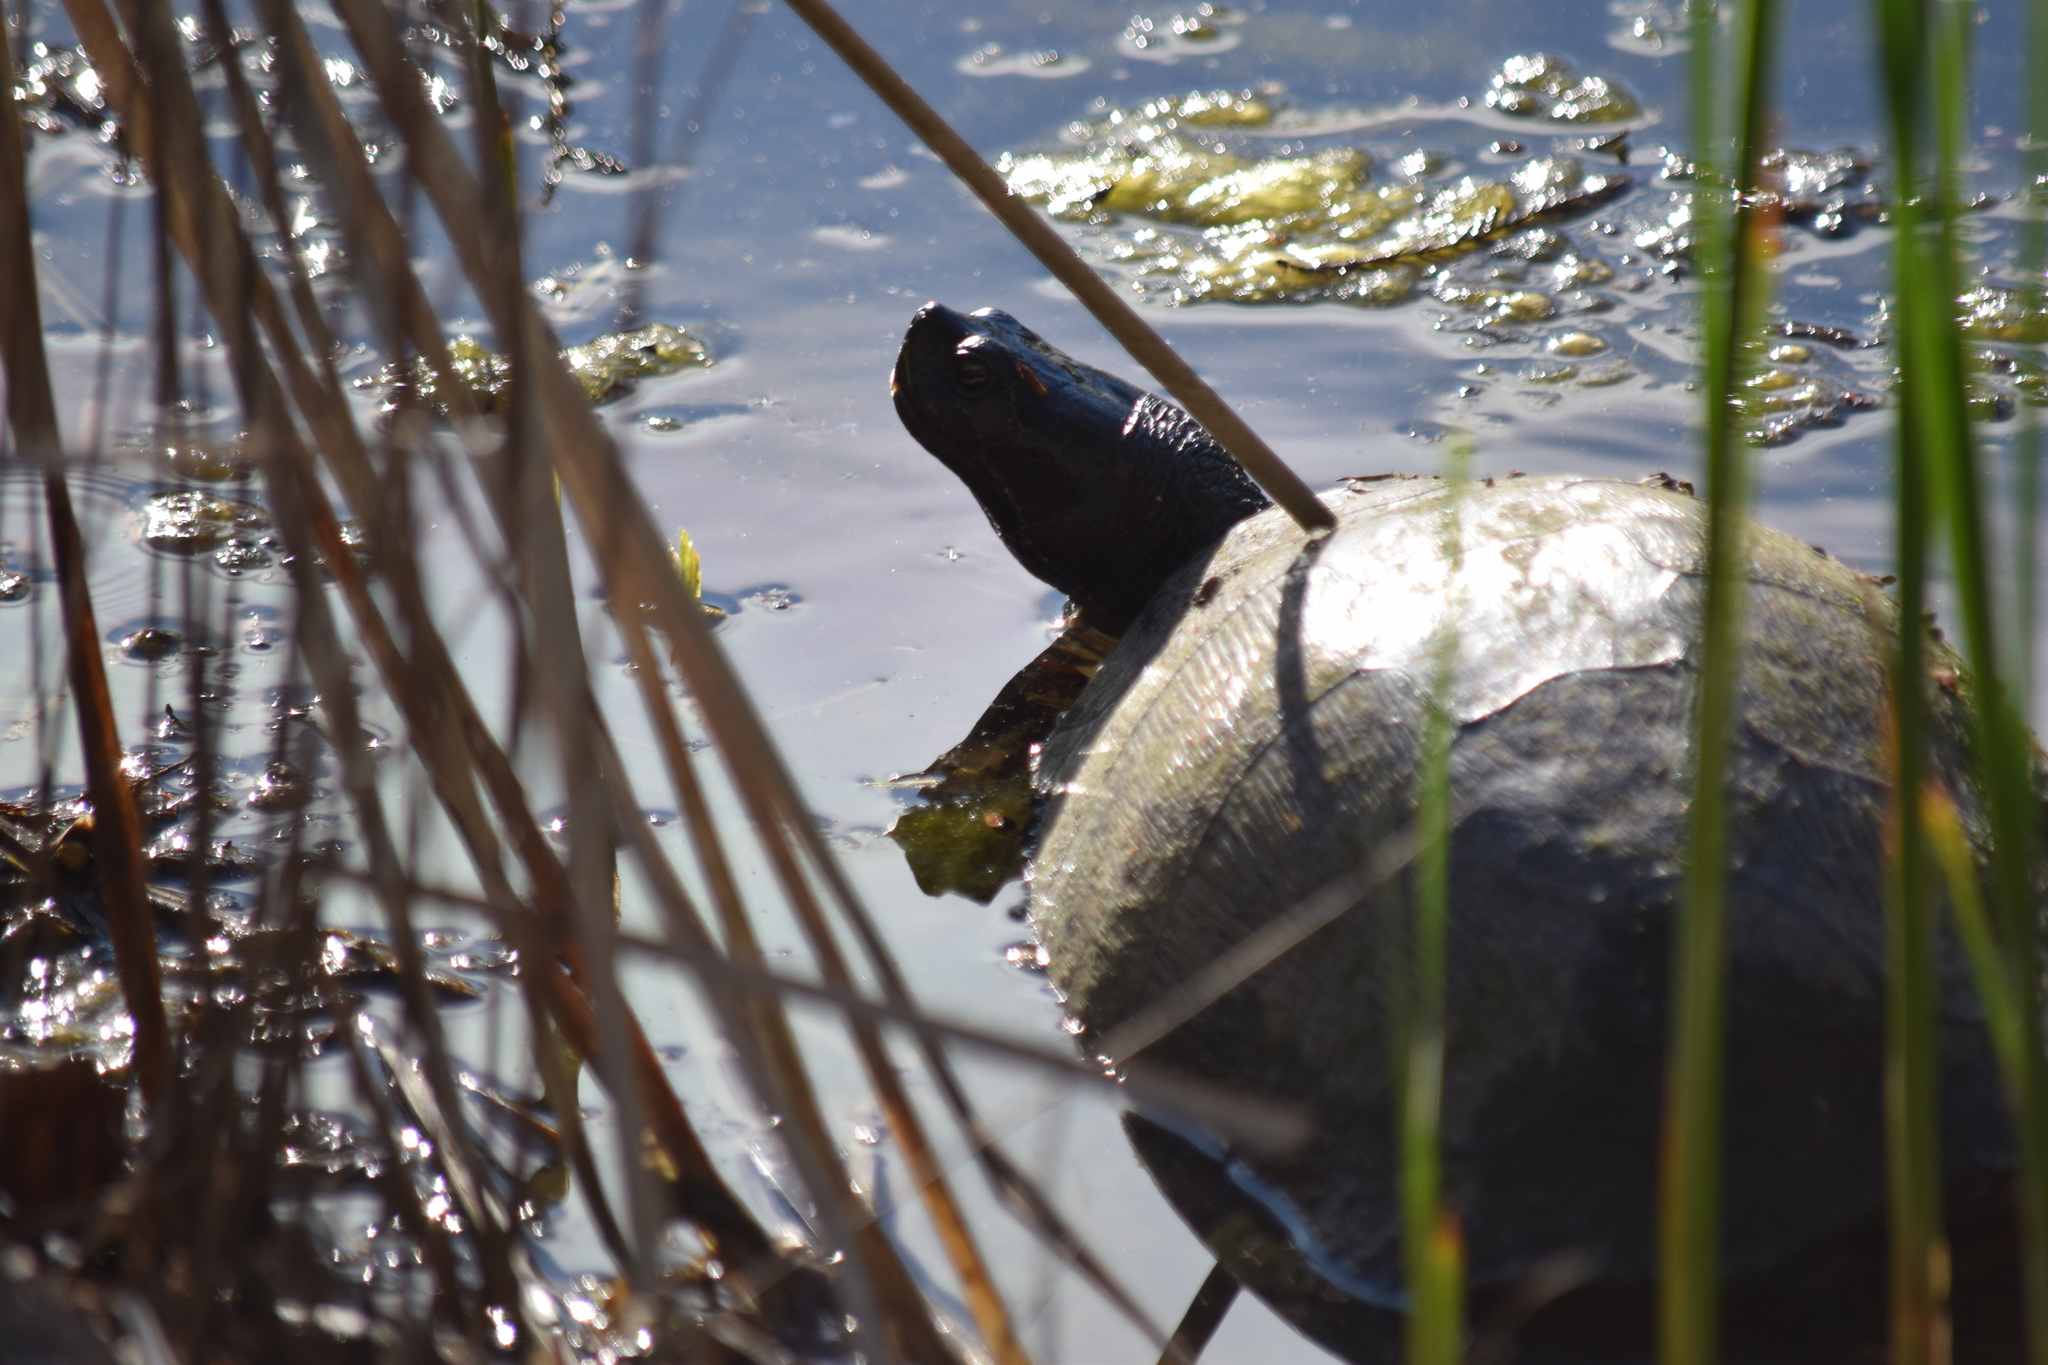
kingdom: Animalia
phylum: Chordata
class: Testudines
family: Emydidae
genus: Pseudemys
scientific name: Pseudemys rubriventris
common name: American red-bellied turtle
